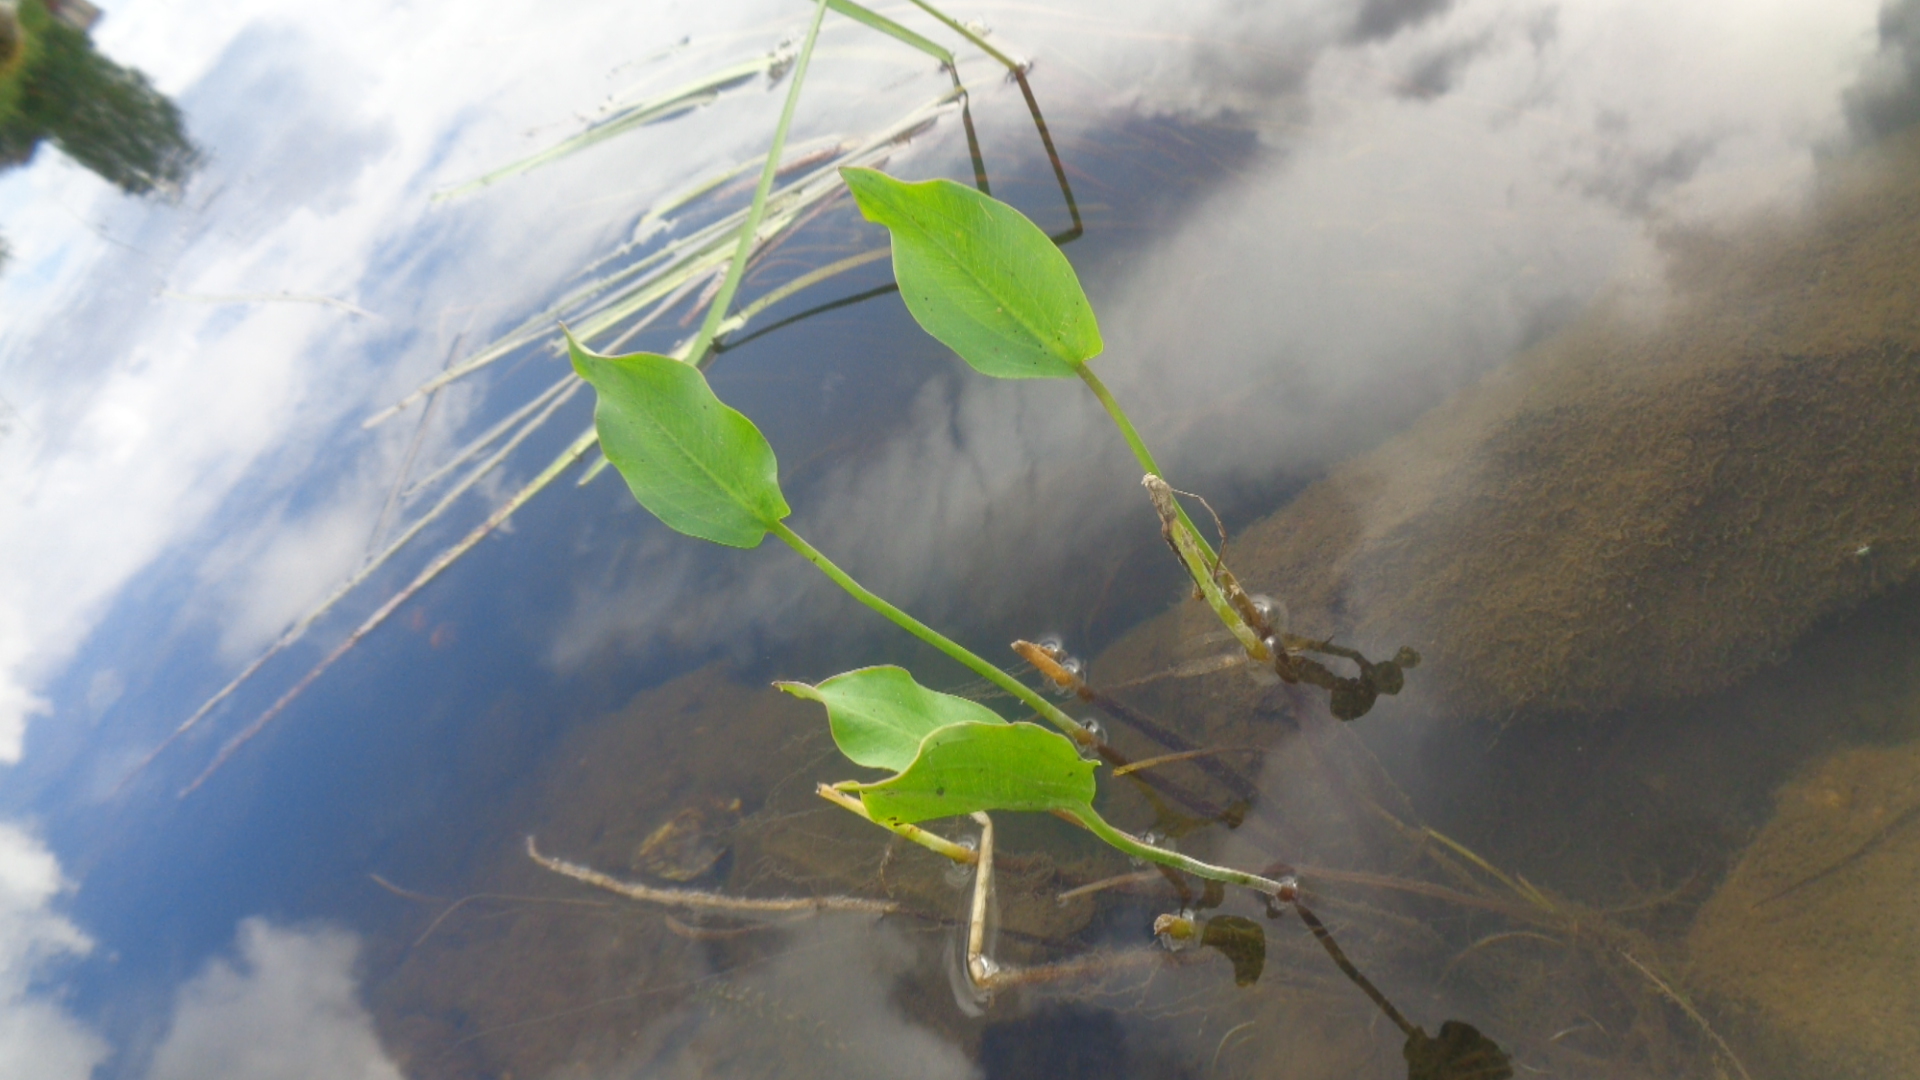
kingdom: Plantae
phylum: Tracheophyta
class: Liliopsida
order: Alismatales
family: Alismataceae
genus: Alisma
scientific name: Alisma plantago-aquatica
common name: Water-plantain
